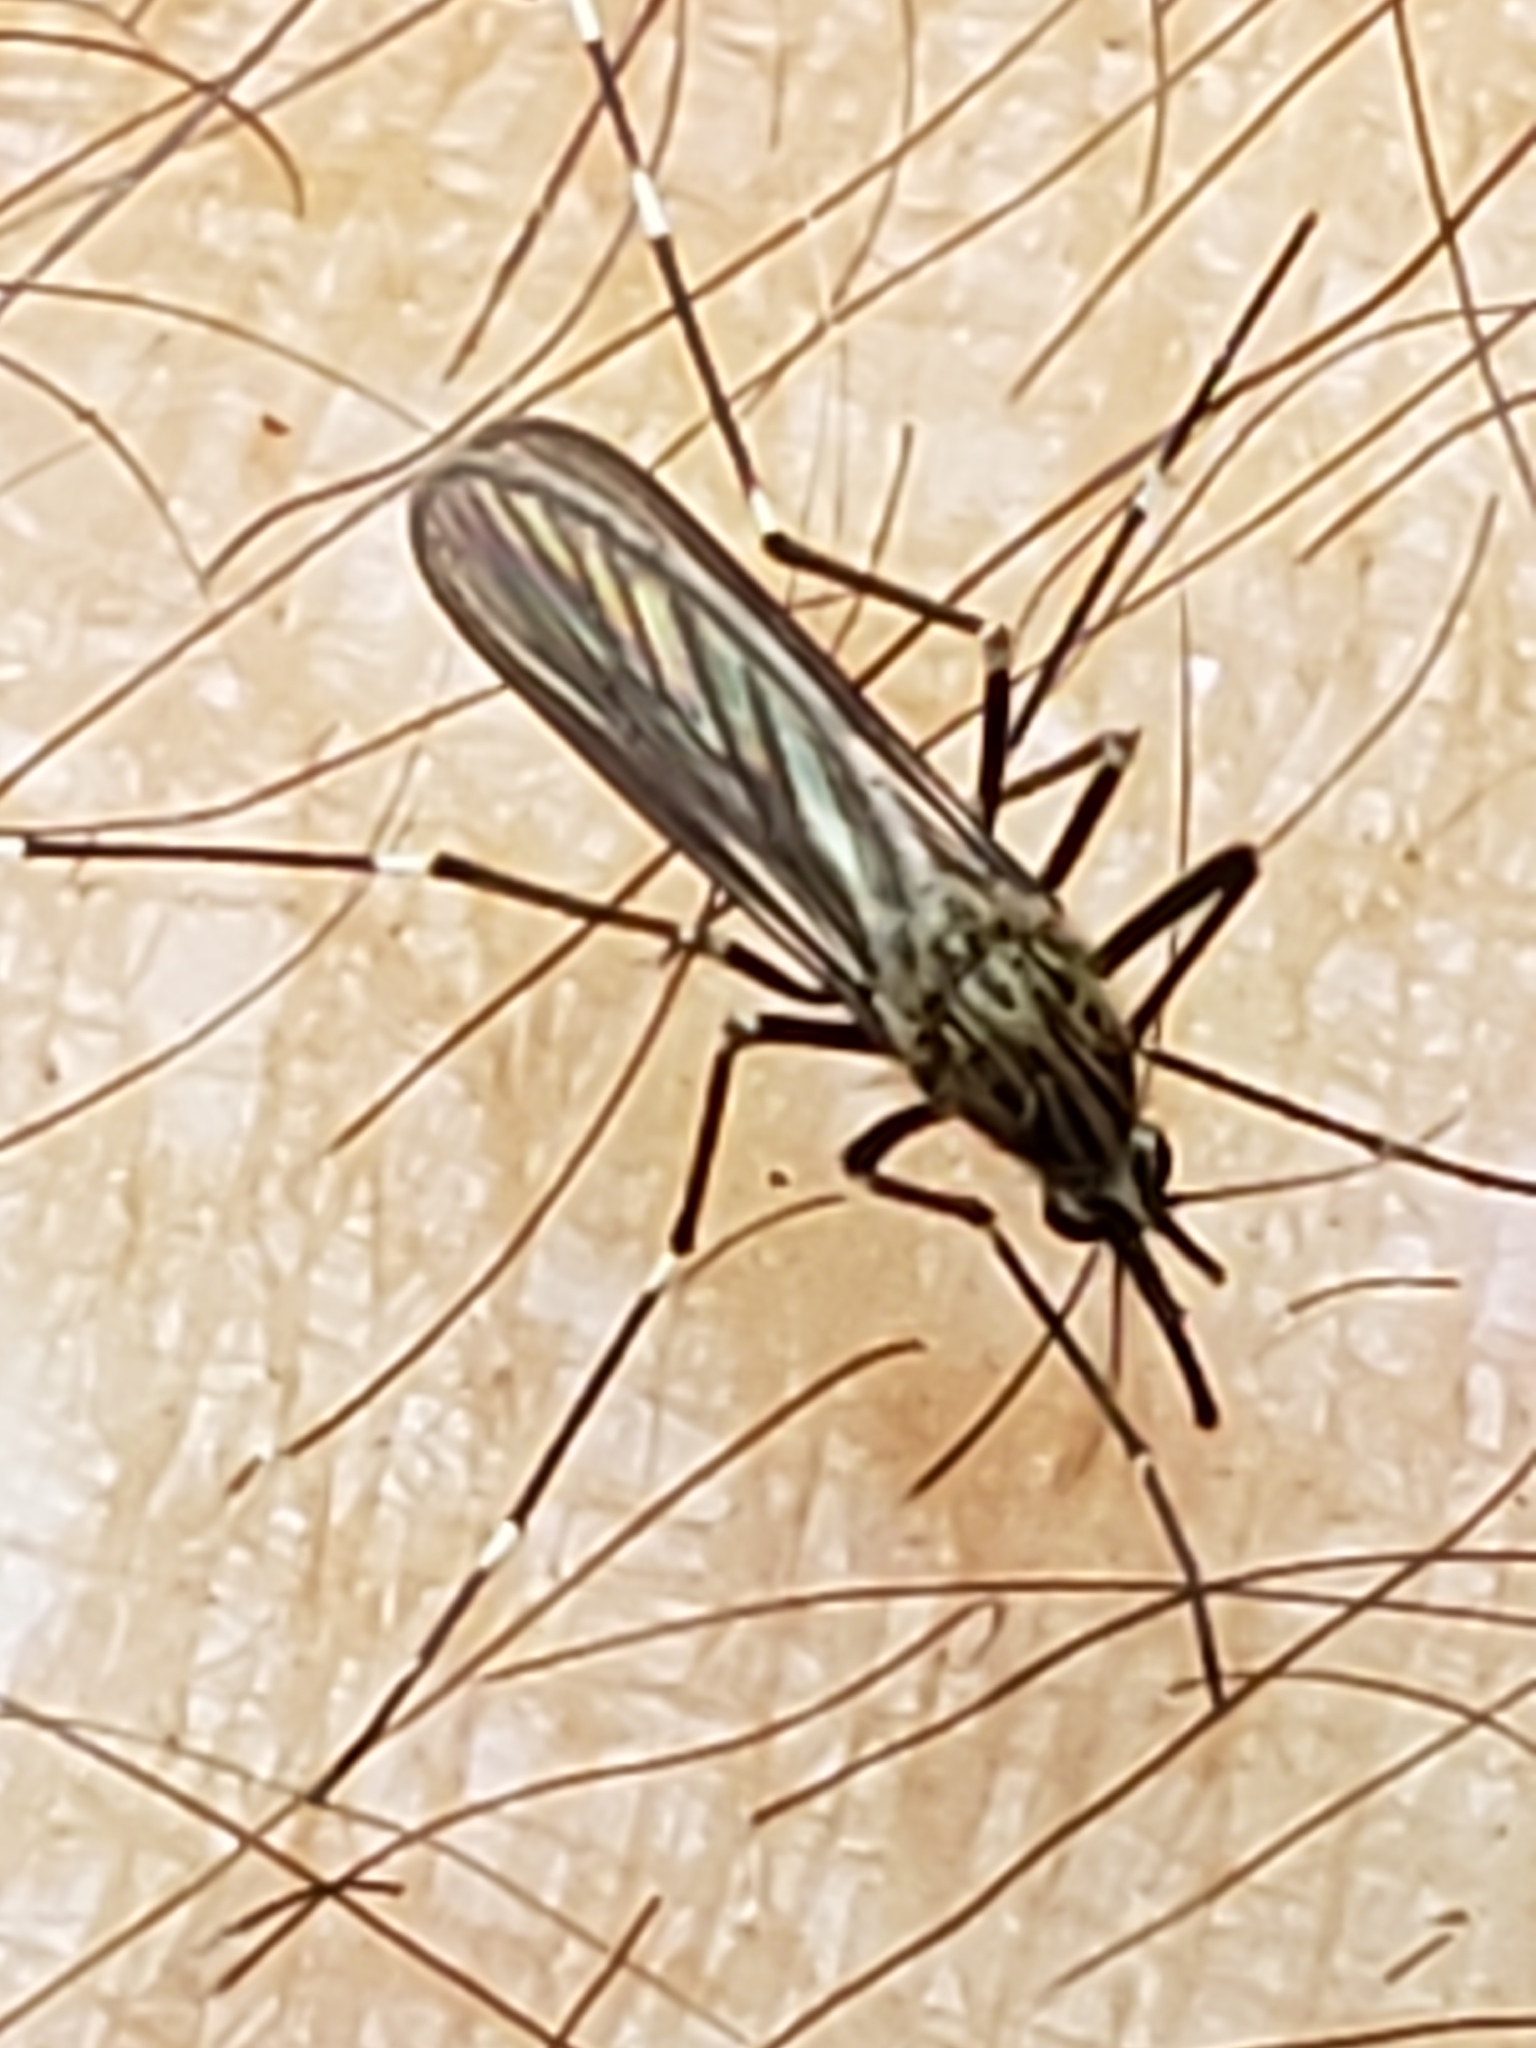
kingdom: Animalia
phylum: Arthropoda
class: Insecta
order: Diptera
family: Culicidae
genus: Aedes
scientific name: Aedes japonicus
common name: Asian bush mosquito
